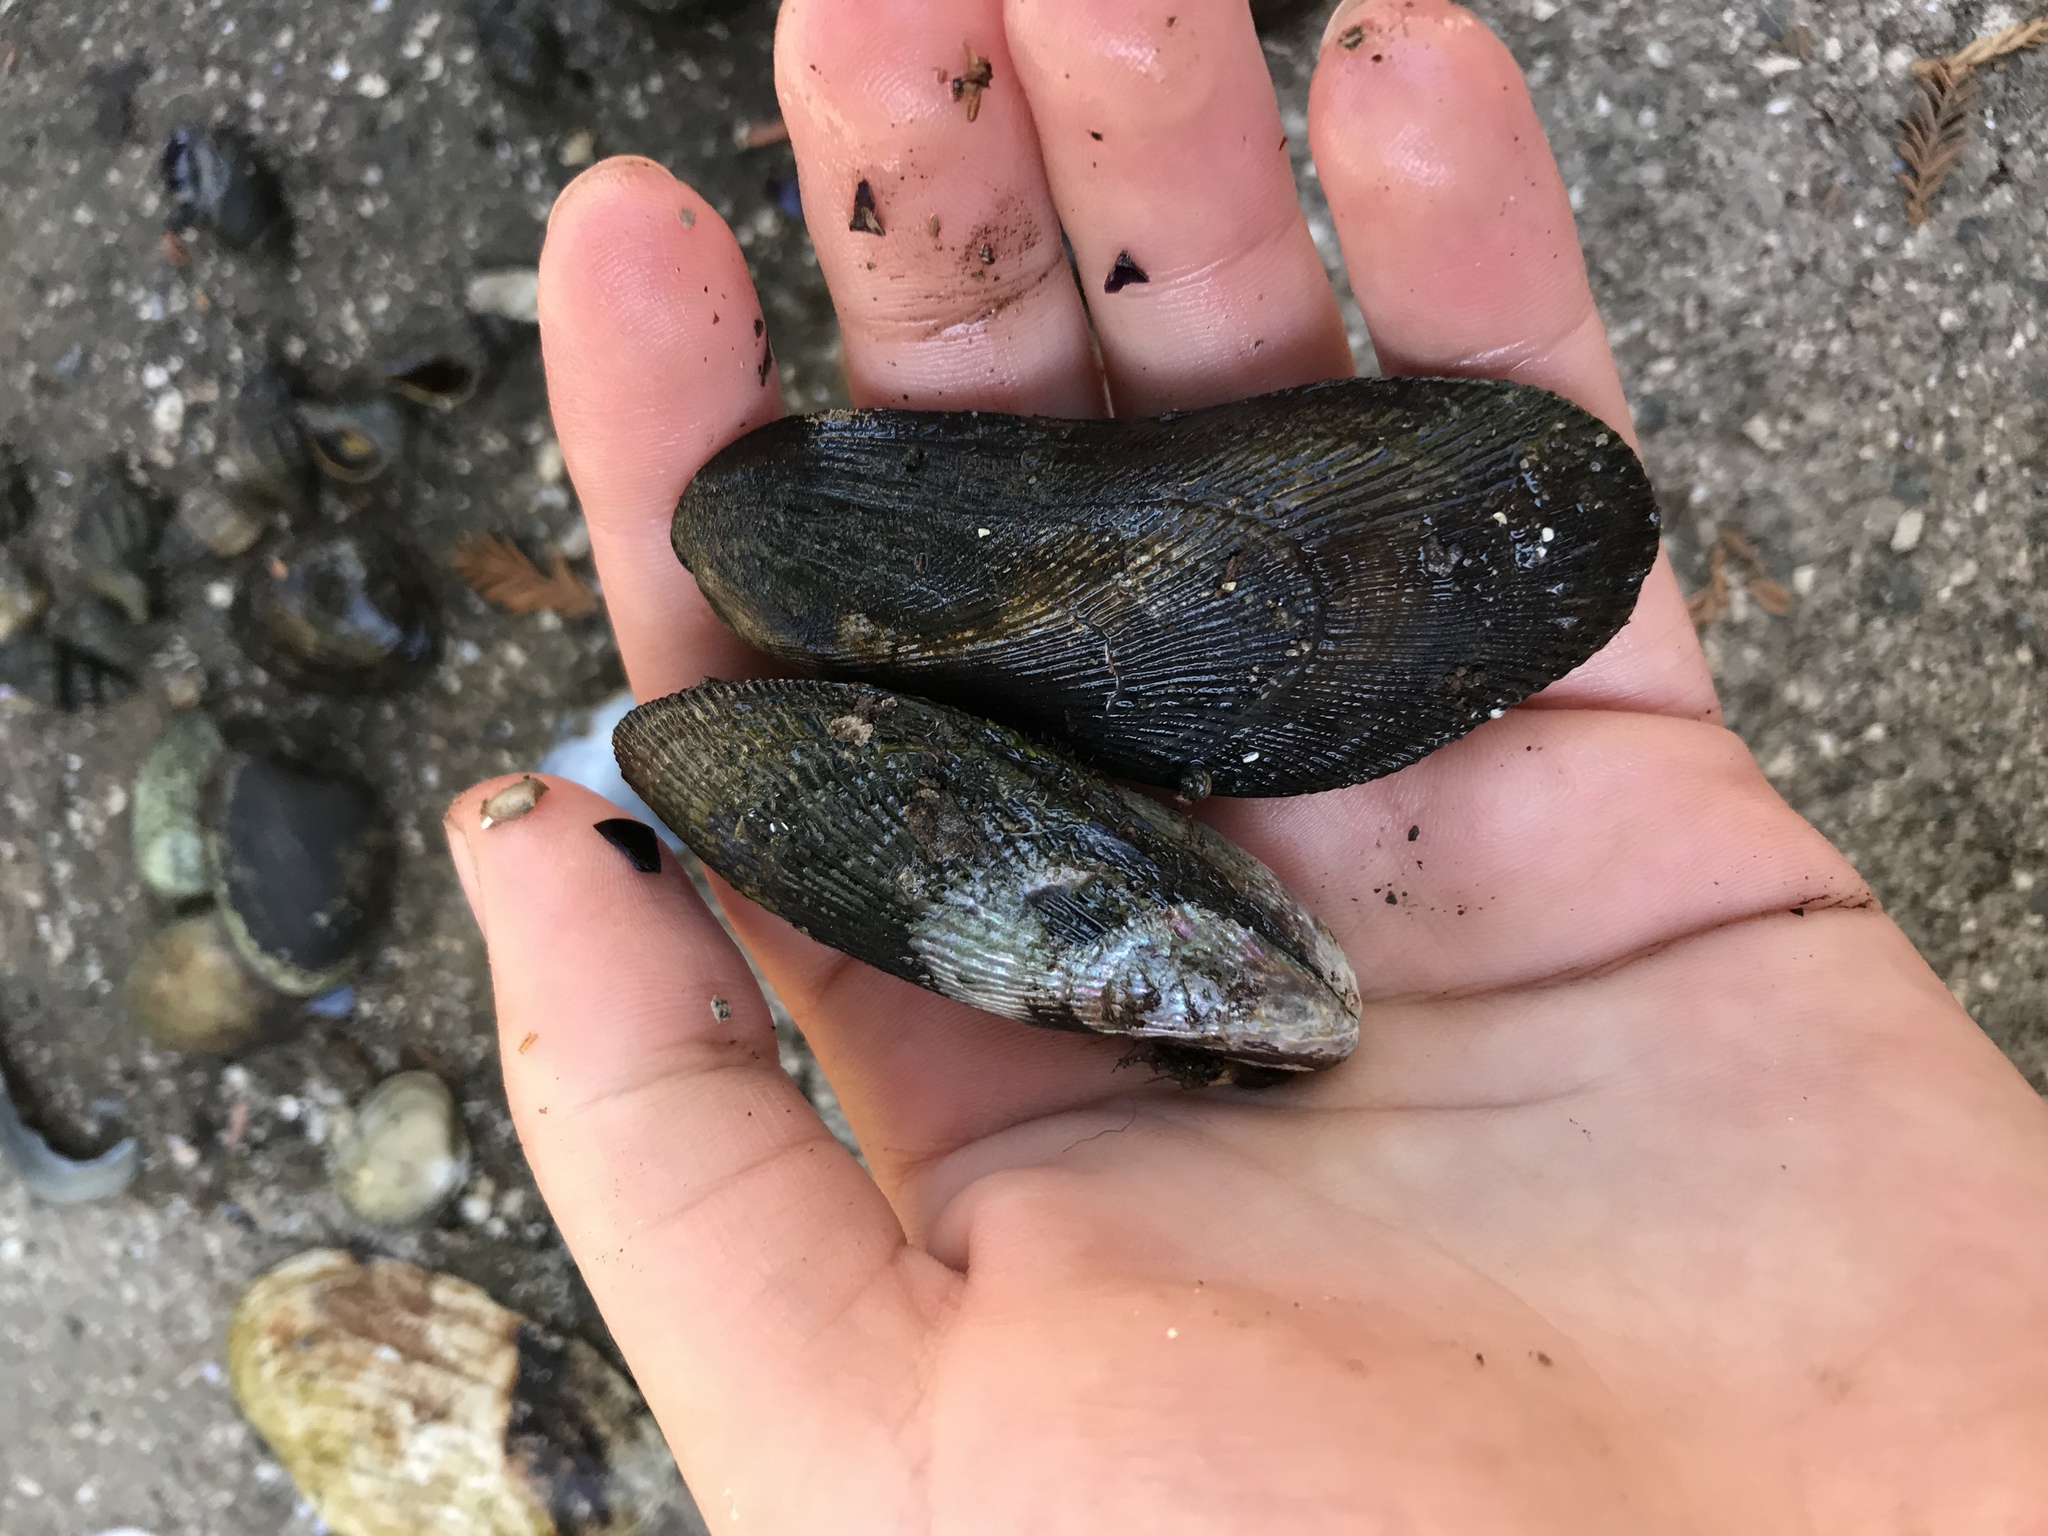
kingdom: Animalia
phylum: Mollusca
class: Bivalvia
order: Mytilida
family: Mytilidae
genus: Geukensia
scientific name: Geukensia demissa
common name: Ribbed mussel
